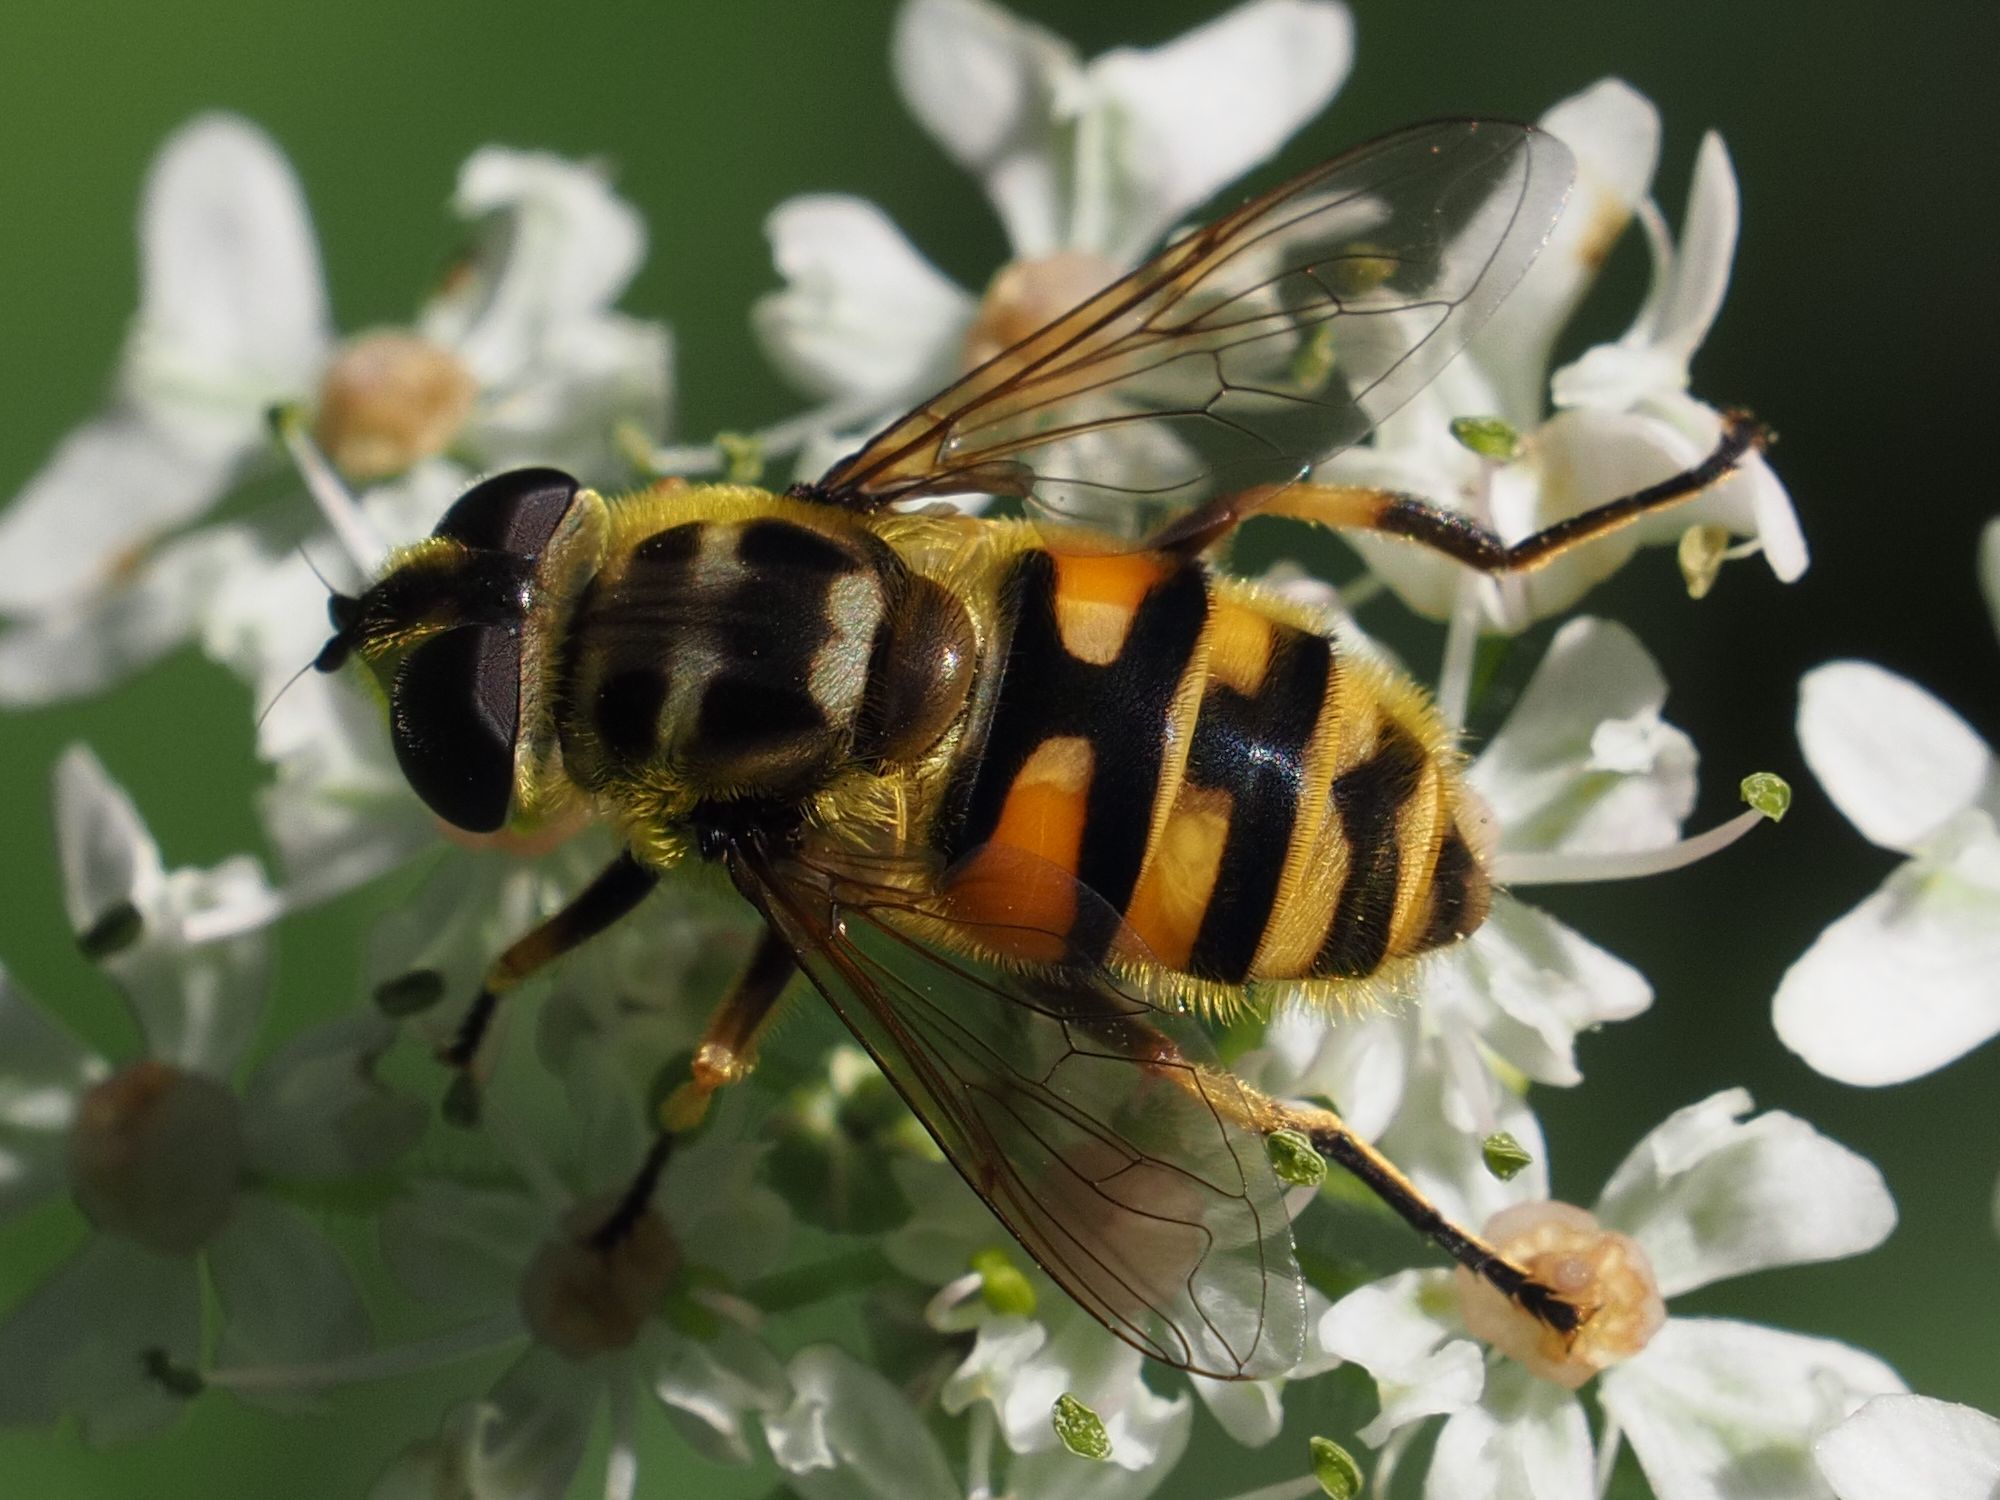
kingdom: Animalia
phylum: Arthropoda
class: Insecta
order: Diptera
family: Syrphidae
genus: Myathropa
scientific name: Myathropa florea
